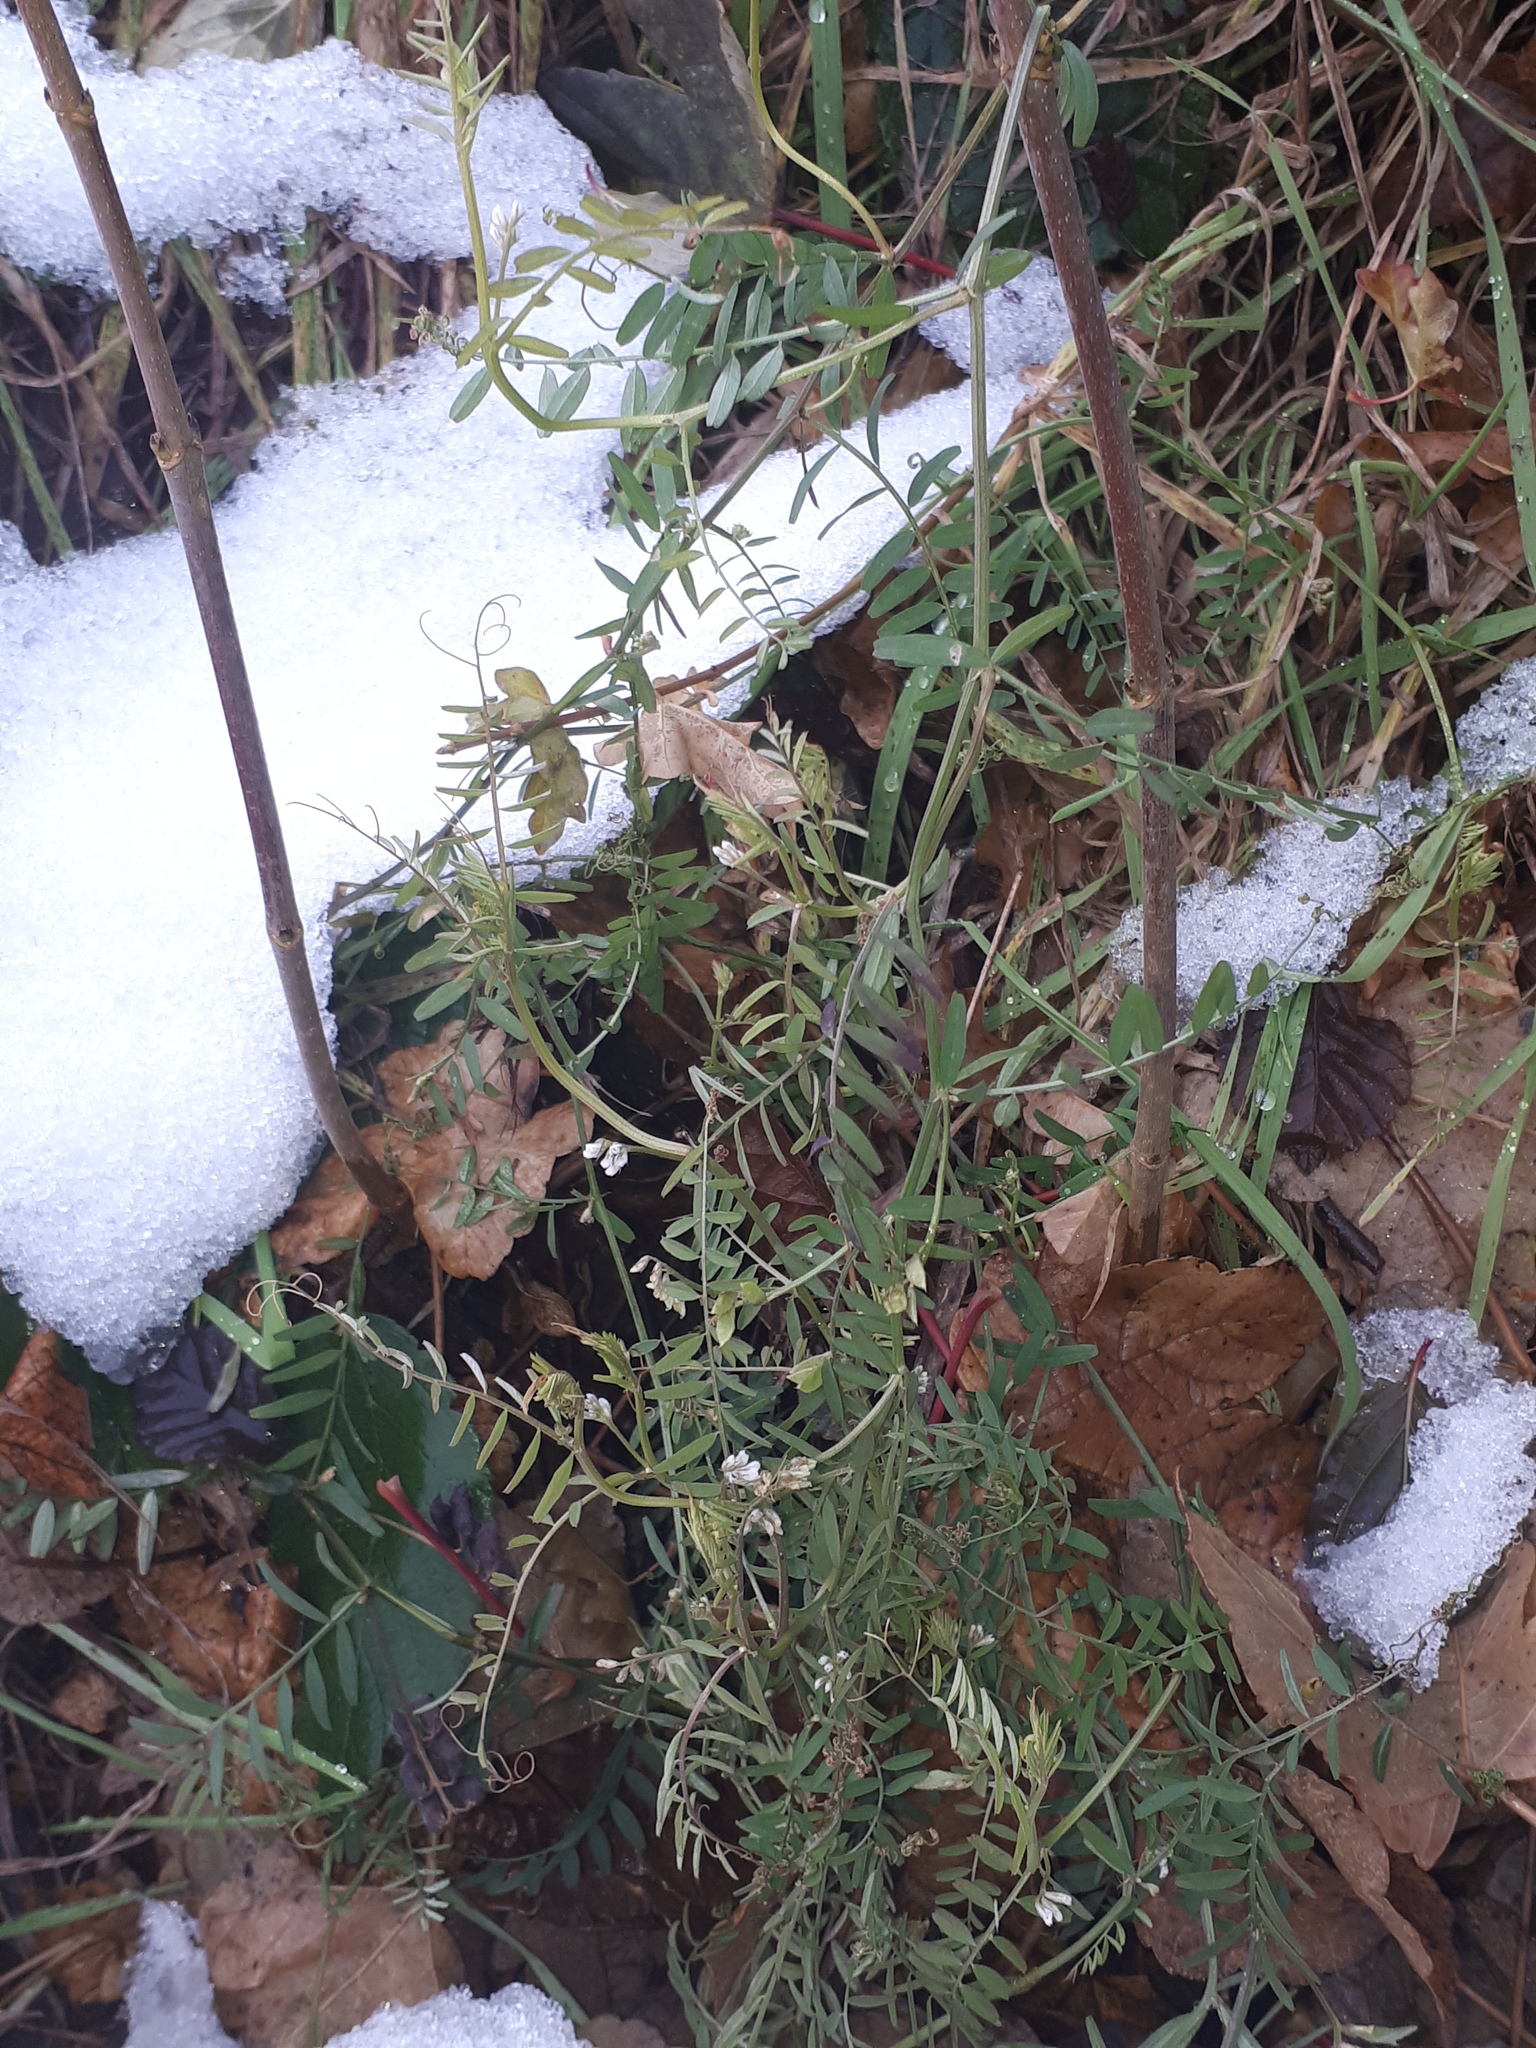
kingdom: Plantae
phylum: Tracheophyta
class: Magnoliopsida
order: Fabales
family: Fabaceae
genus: Vicia
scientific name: Vicia hirsuta
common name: Tiny vetch
